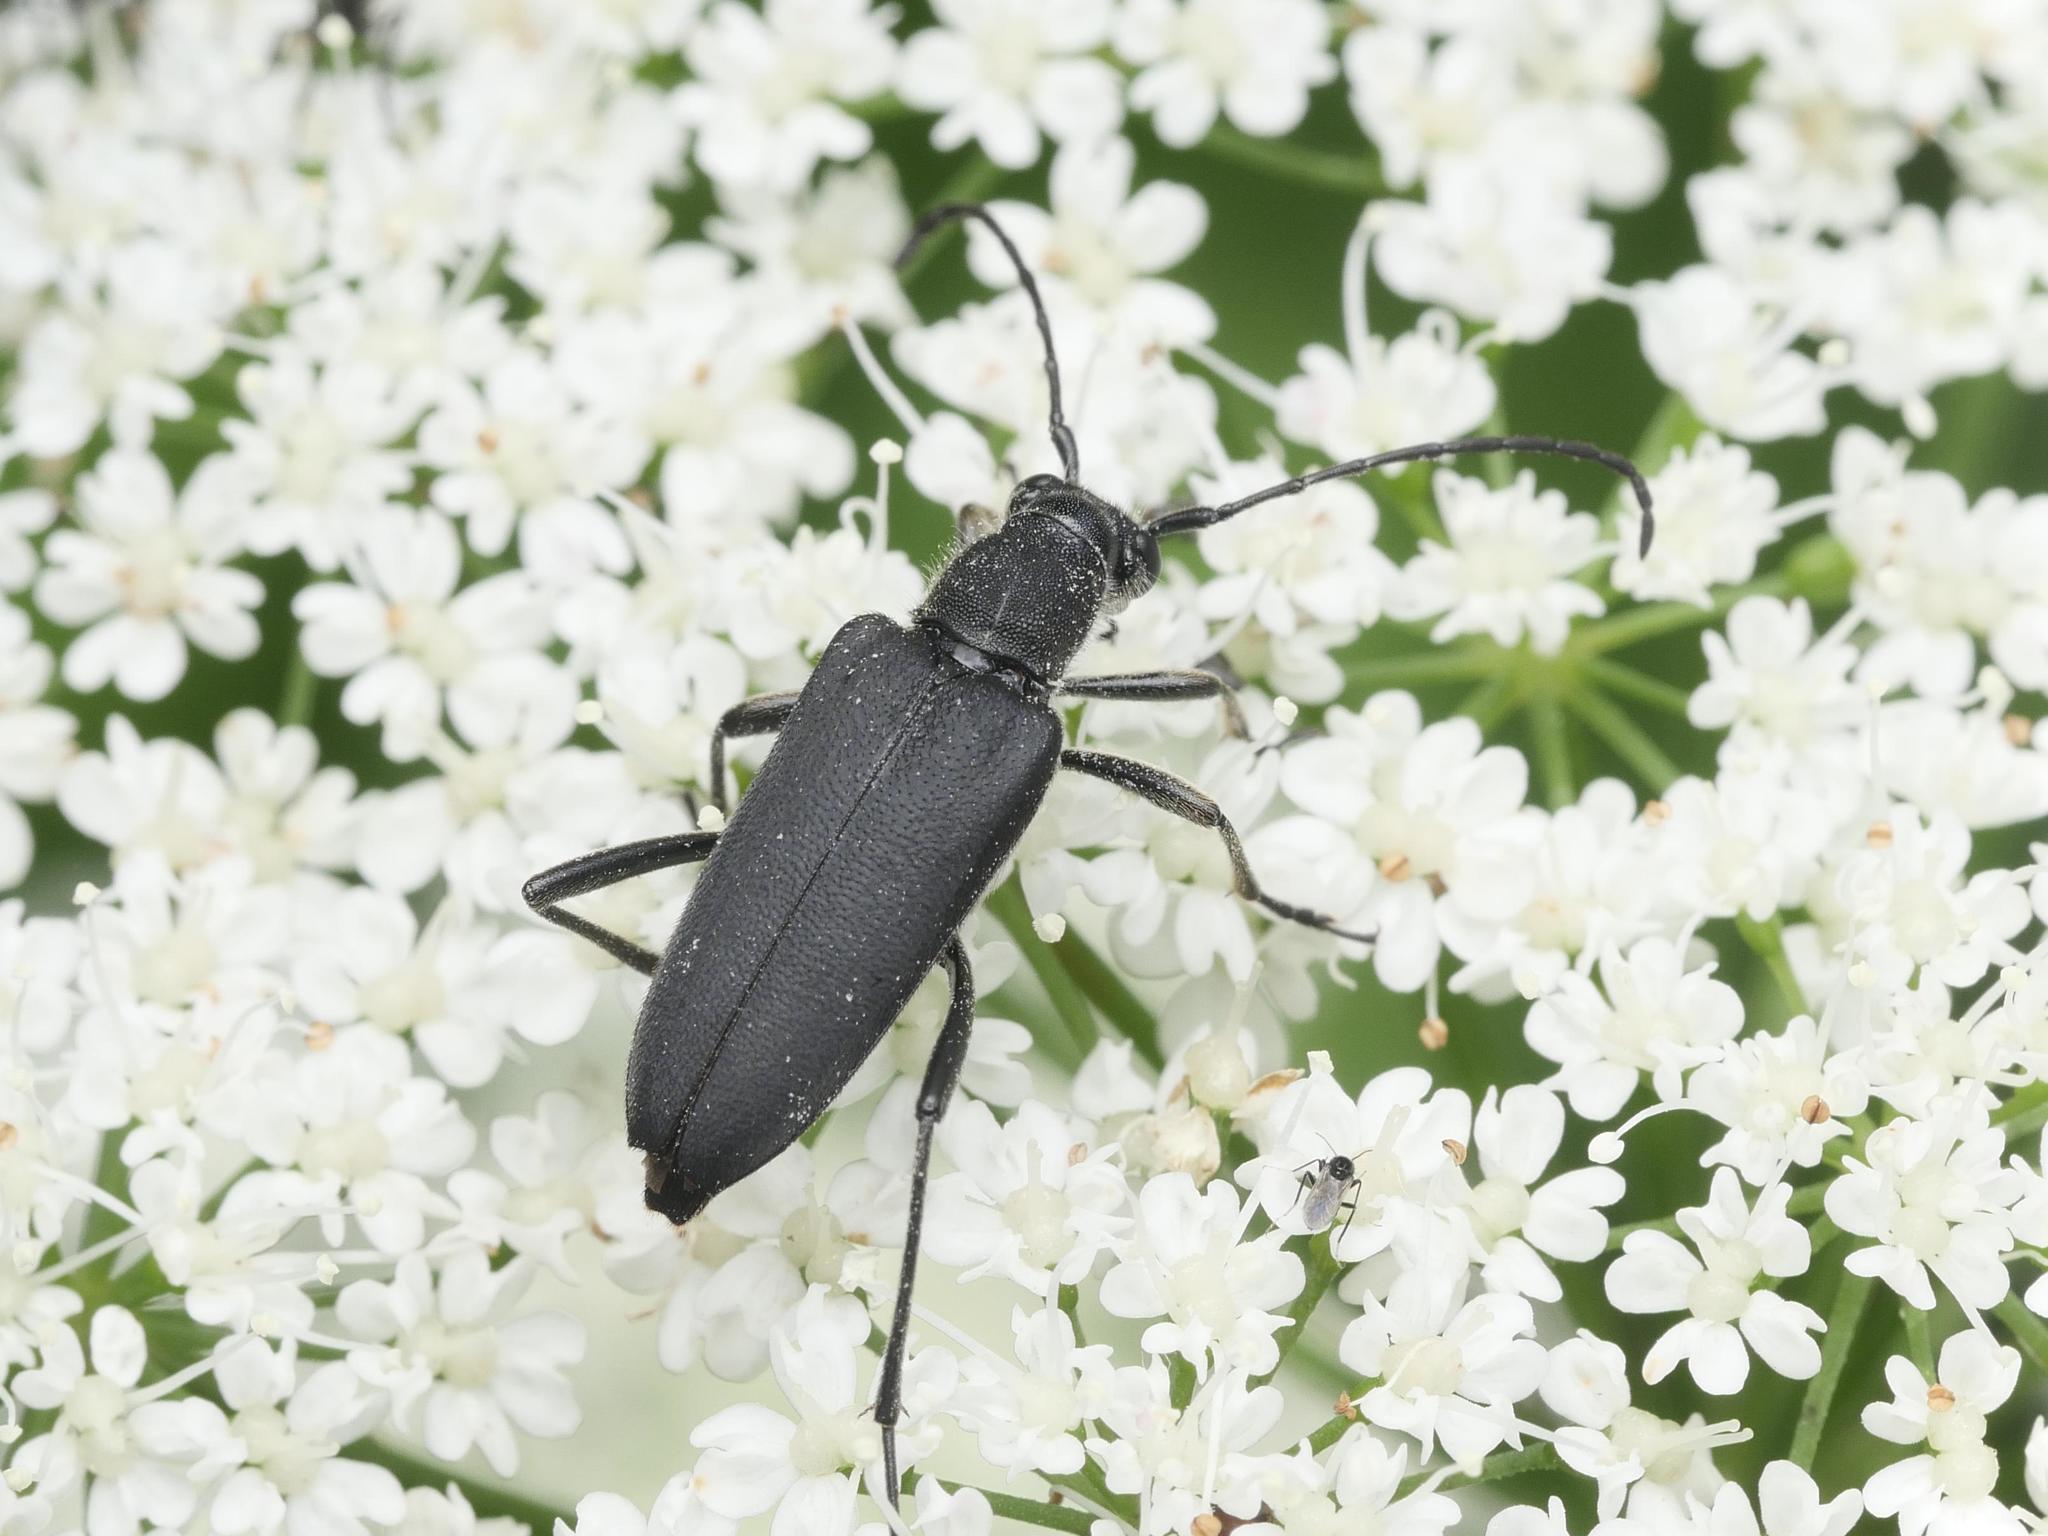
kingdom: Animalia
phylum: Arthropoda
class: Insecta
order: Coleoptera
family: Cerambycidae
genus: Anastrangalia
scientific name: Anastrangalia dubia
